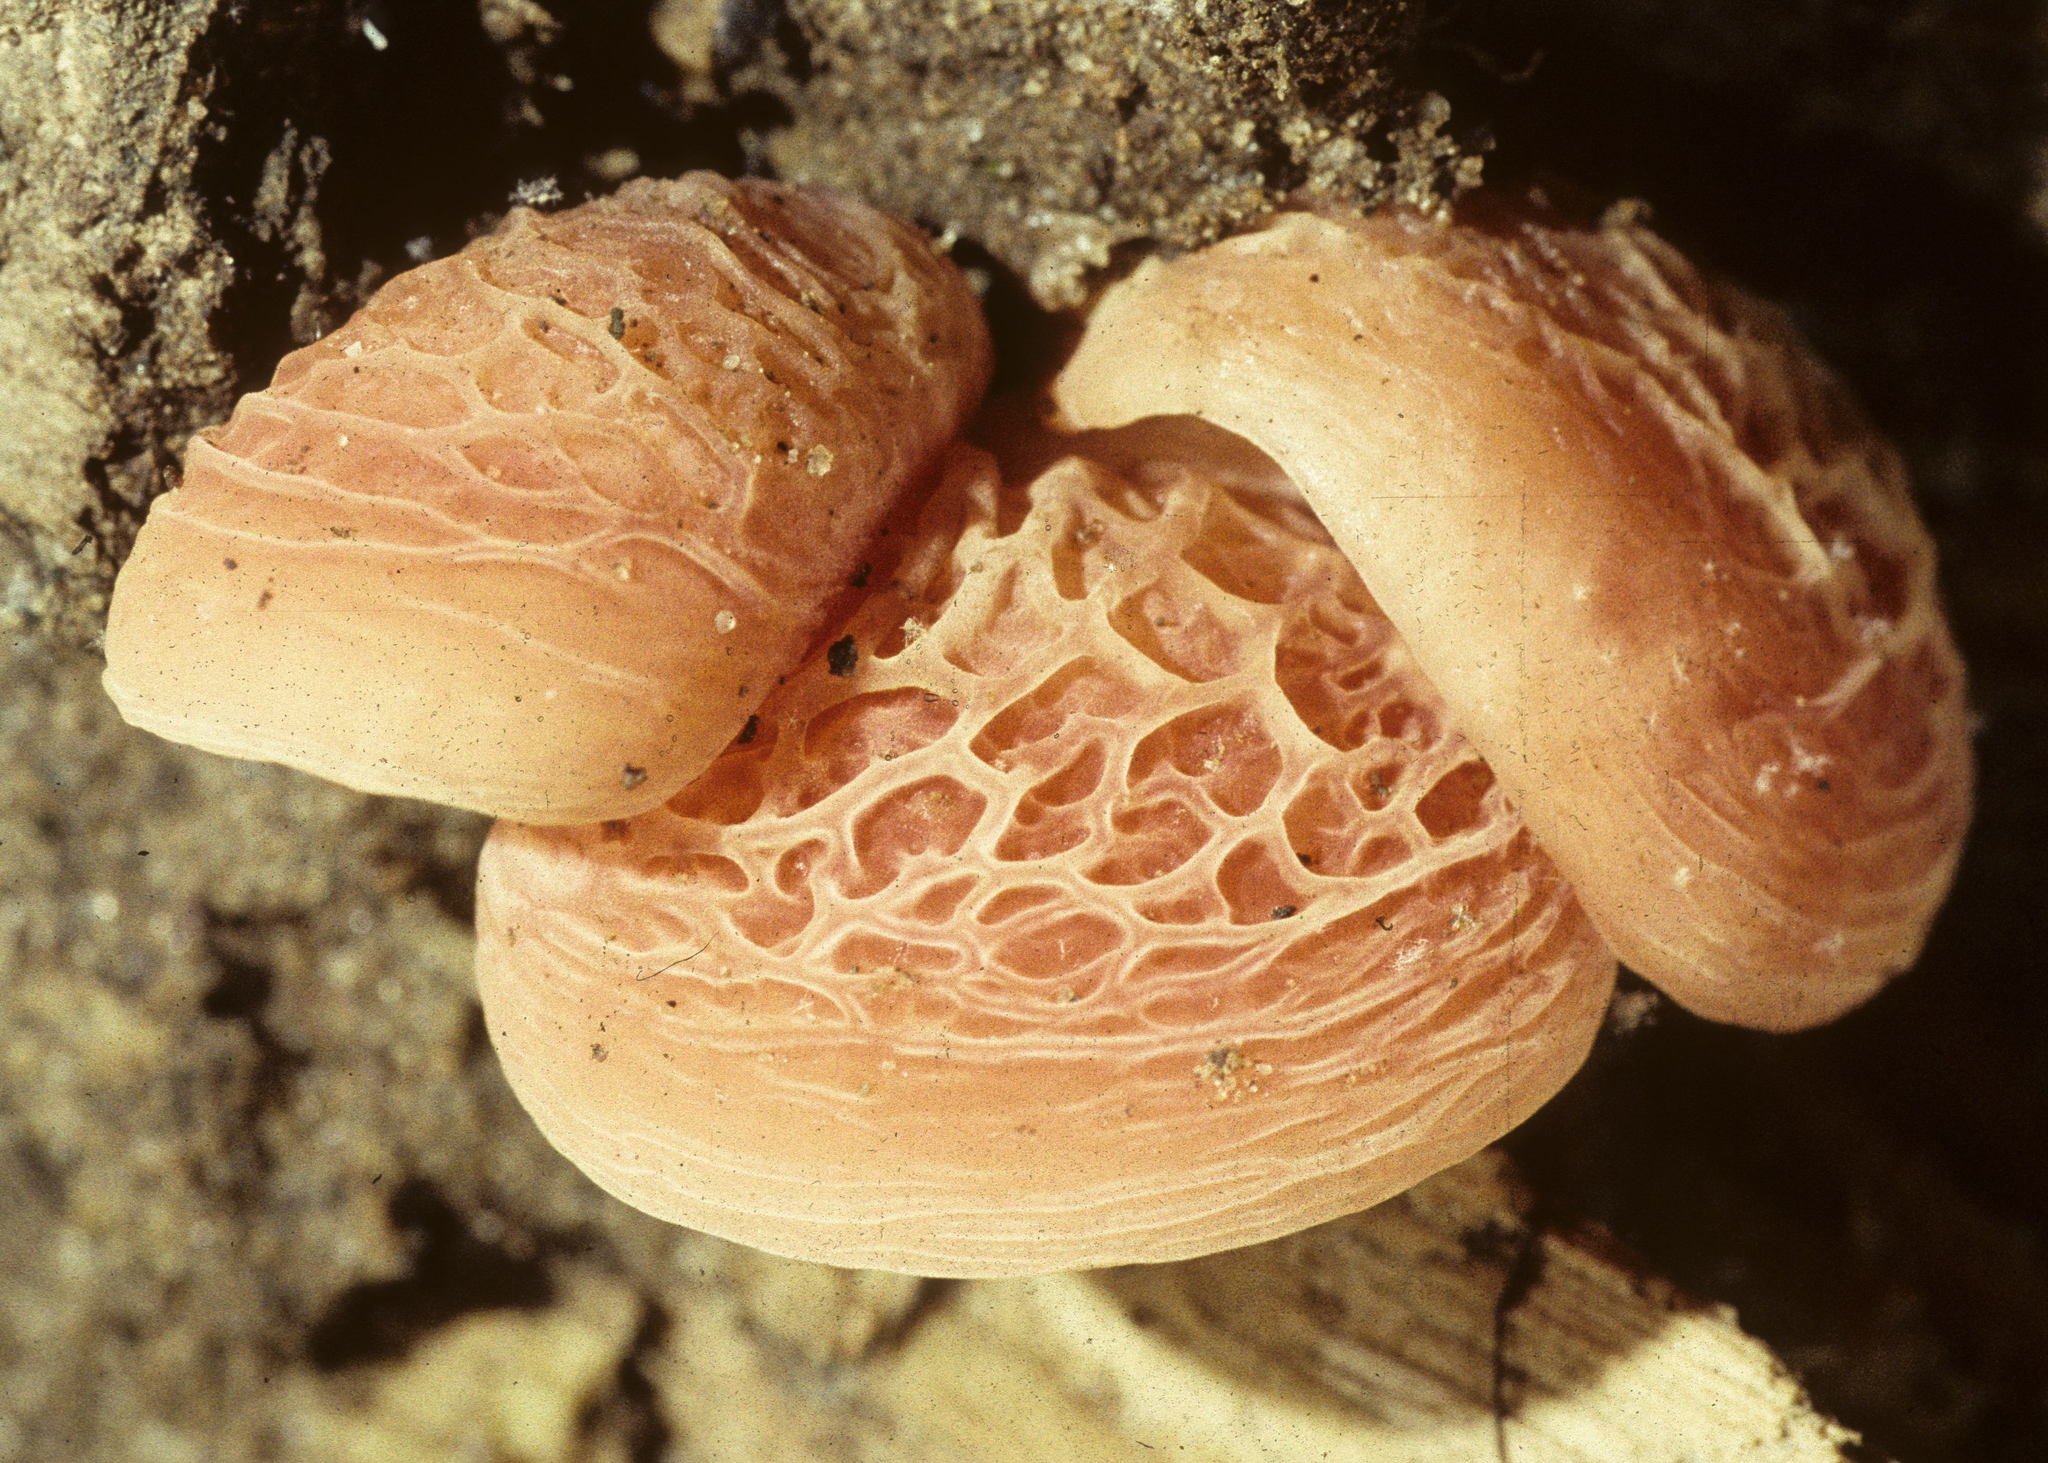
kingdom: Fungi
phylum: Basidiomycota
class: Agaricomycetes
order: Agaricales
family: Physalacriaceae
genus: Rhodotus
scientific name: Rhodotus palmatus
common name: Wrinkled peach
